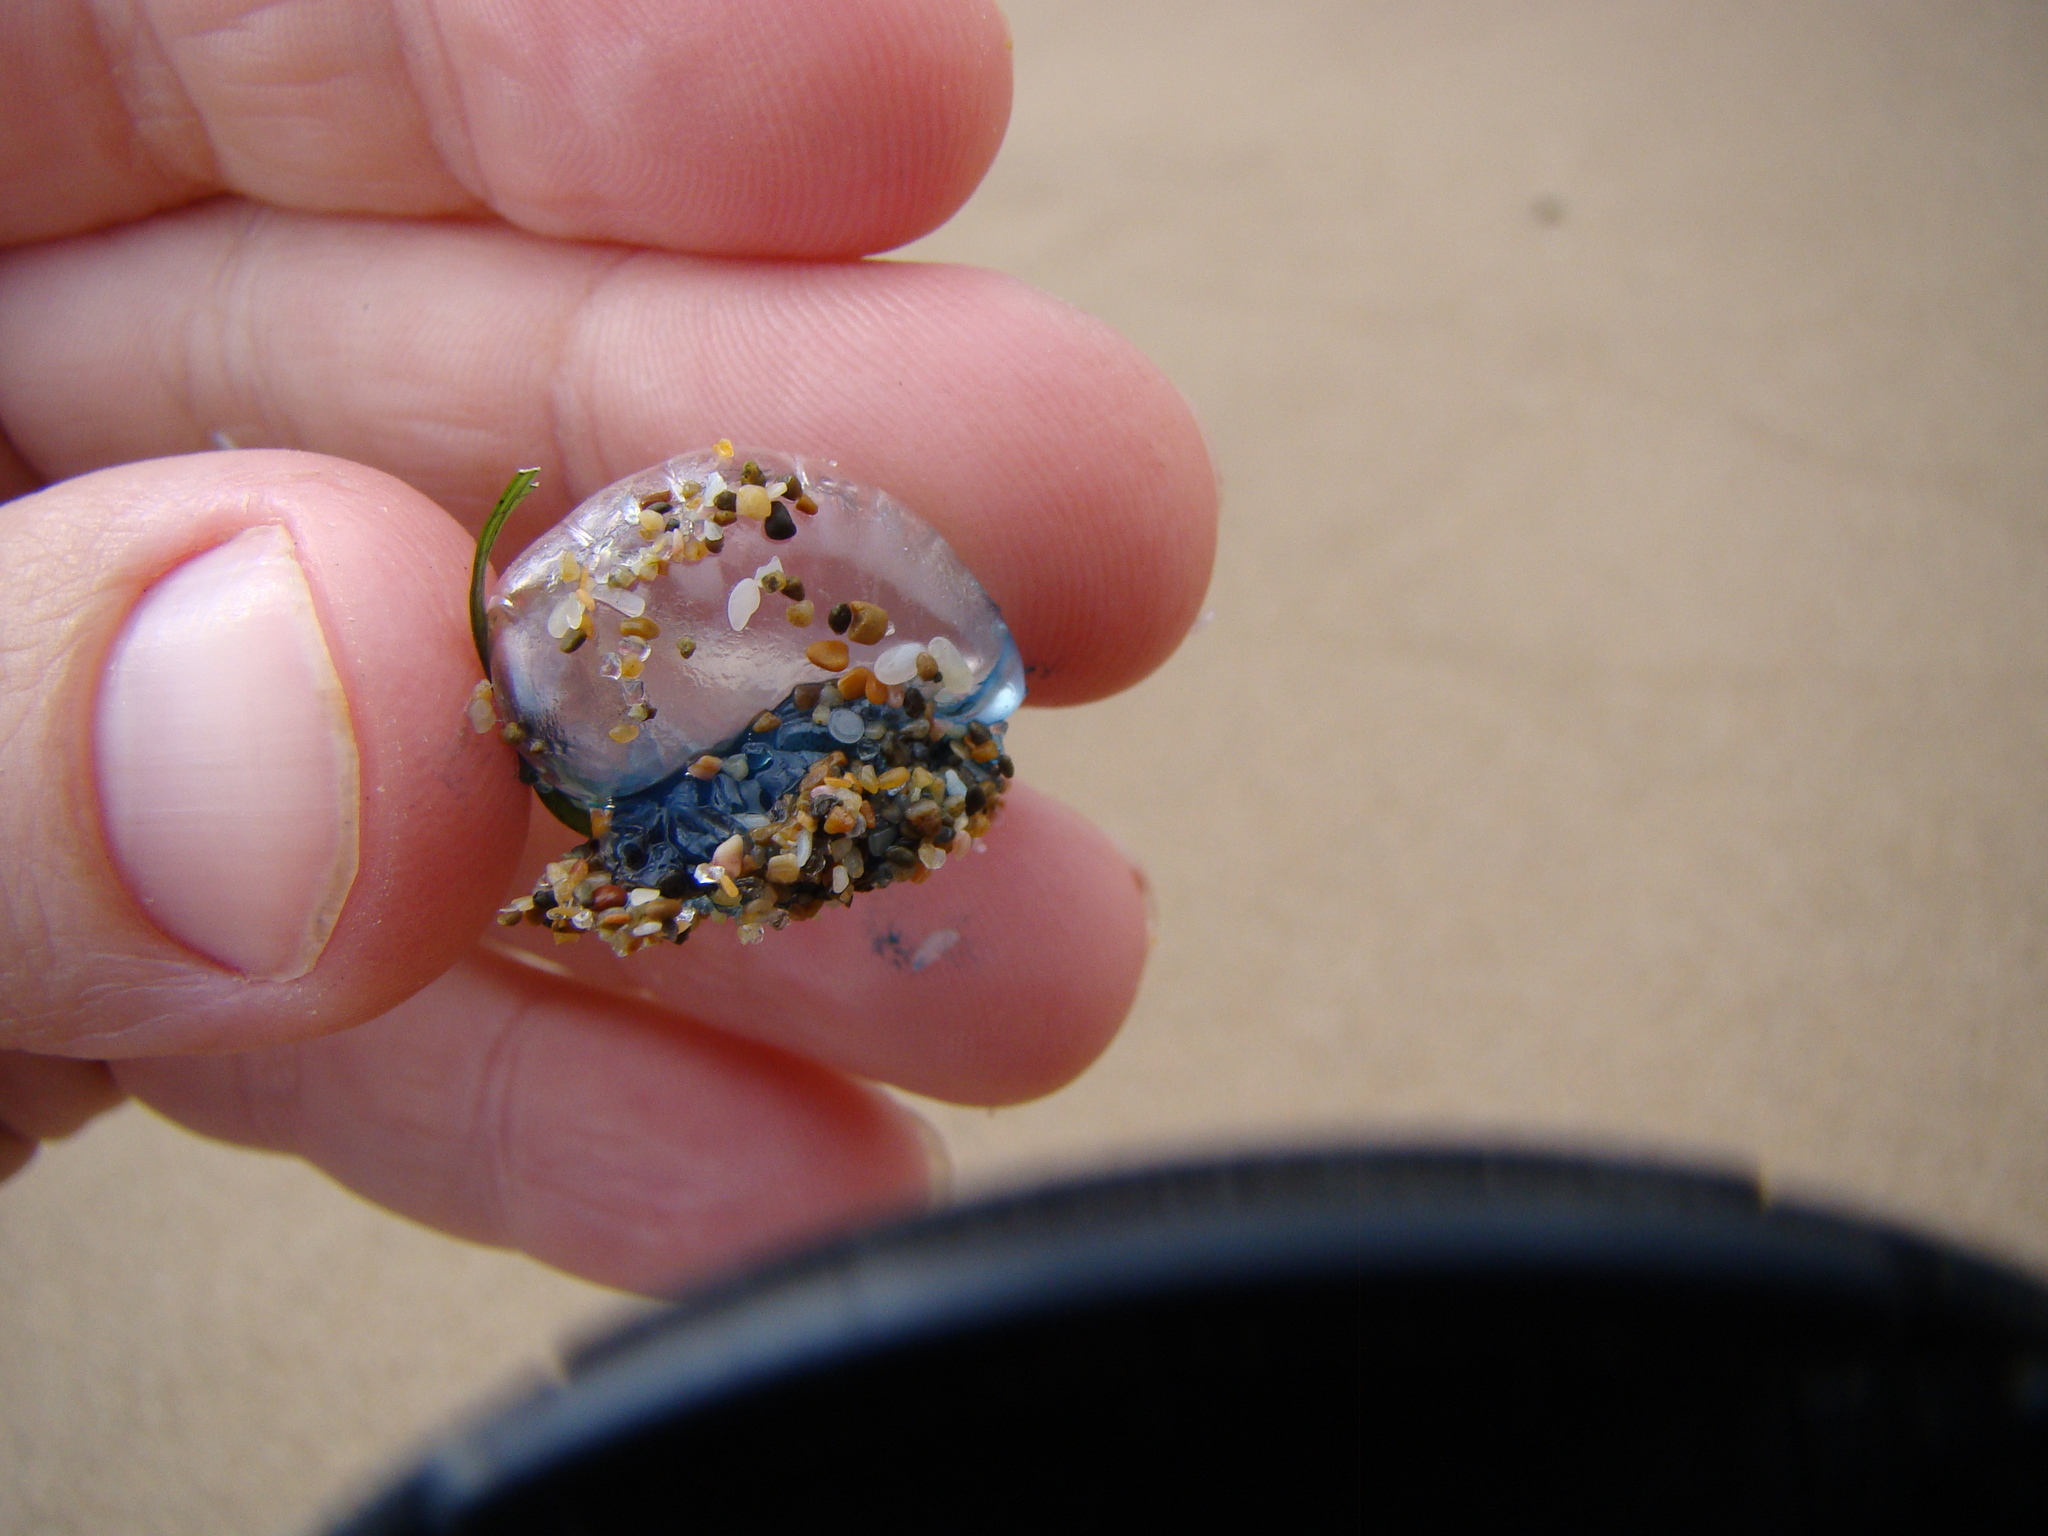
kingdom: Animalia
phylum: Cnidaria
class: Hydrozoa
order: Siphonophorae
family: Physaliidae
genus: Physalia
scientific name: Physalia physalis
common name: Portuguese man-of-war
